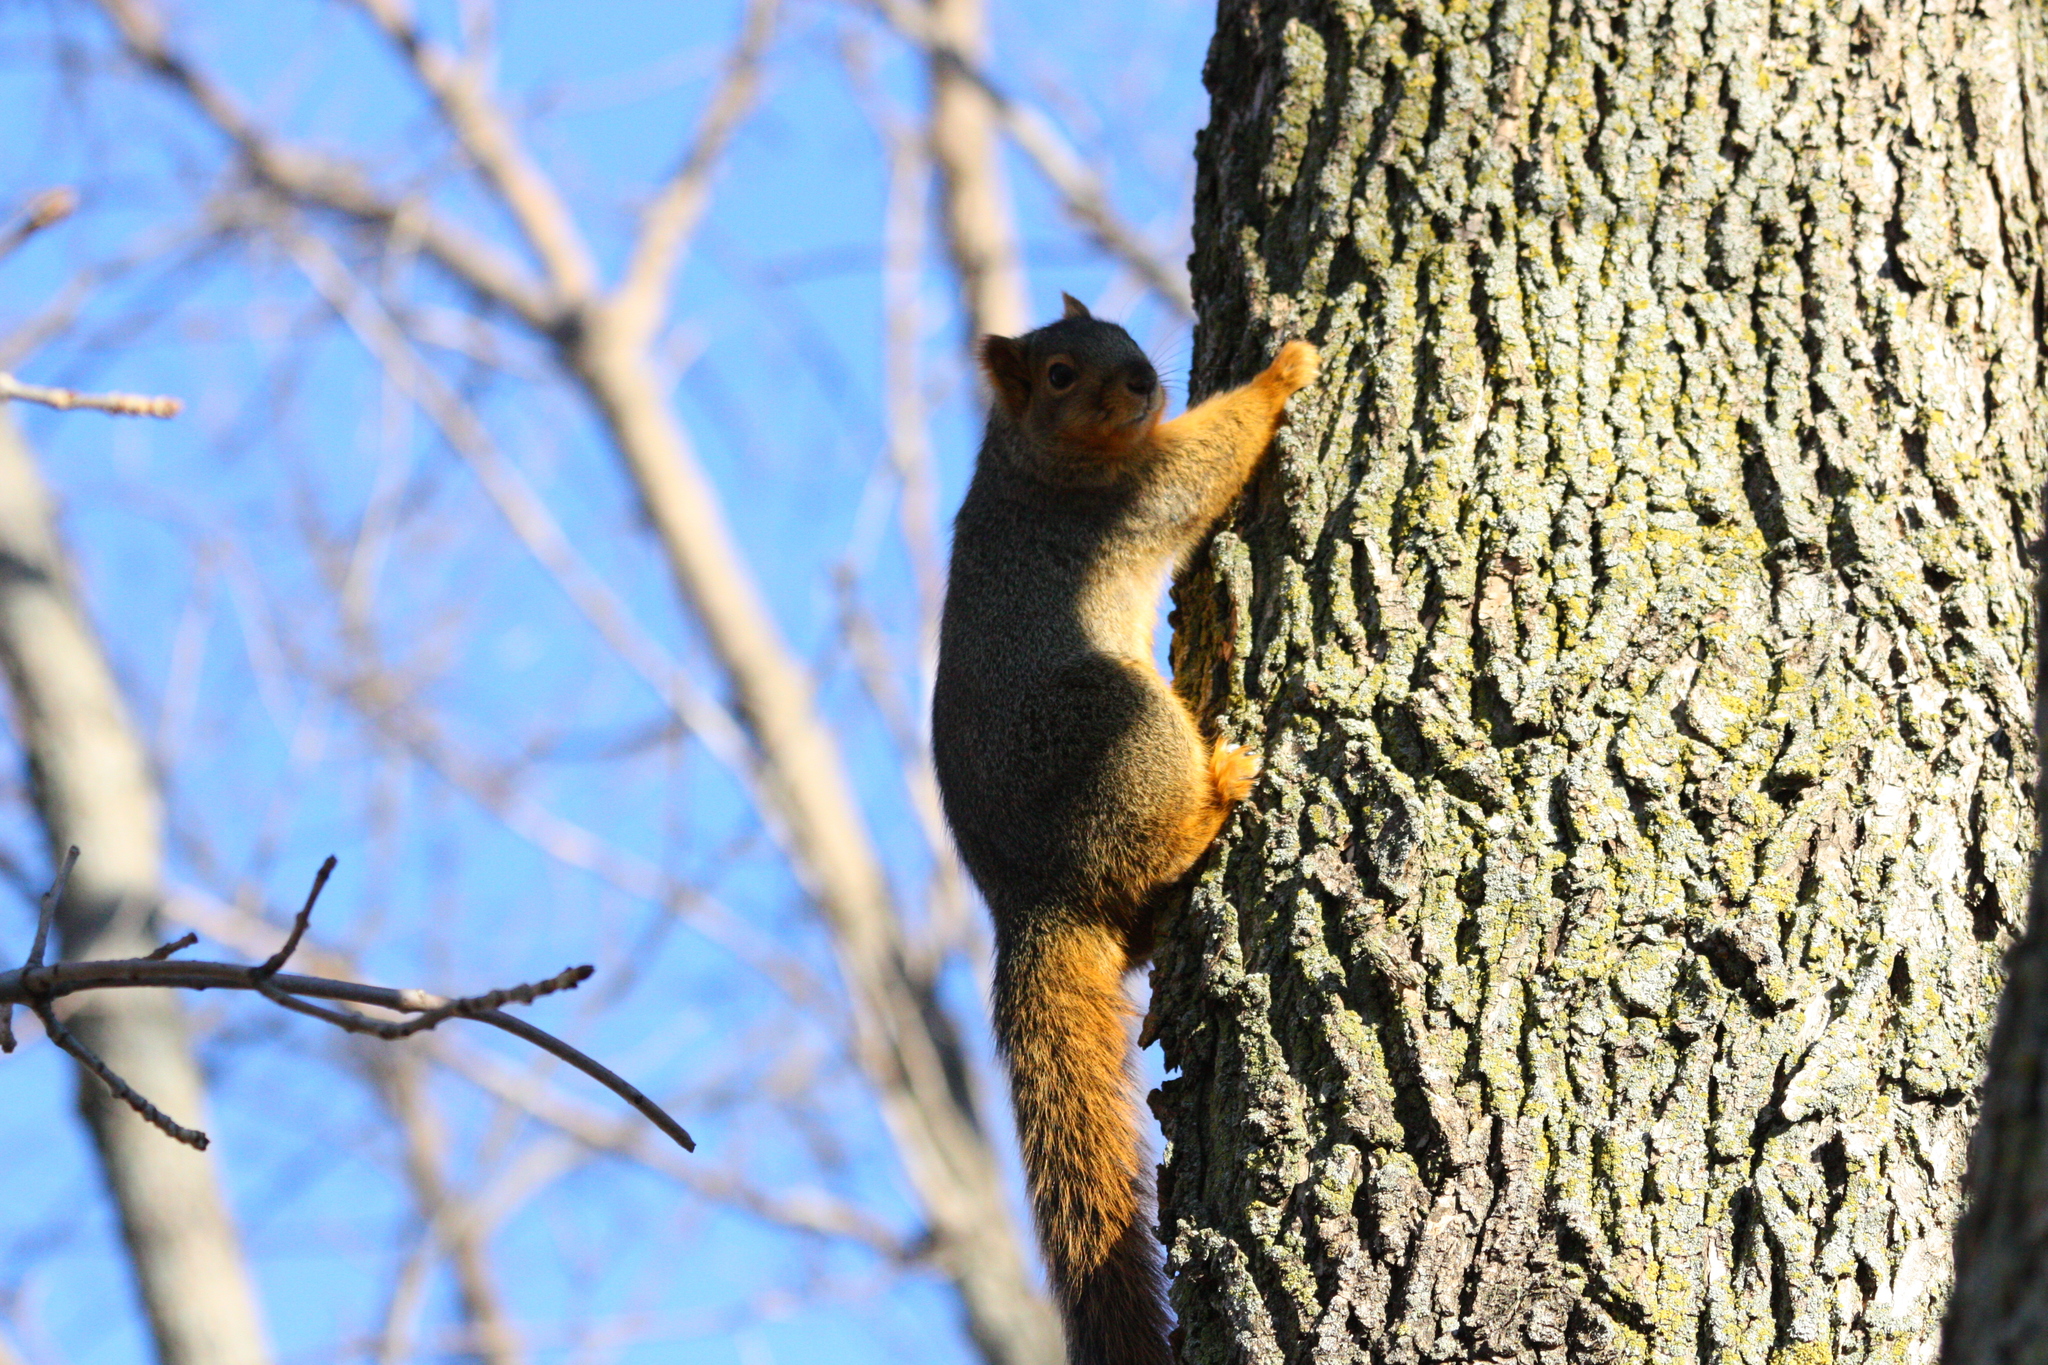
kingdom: Animalia
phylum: Chordata
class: Mammalia
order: Rodentia
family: Sciuridae
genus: Sciurus
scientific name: Sciurus niger
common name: Fox squirrel
